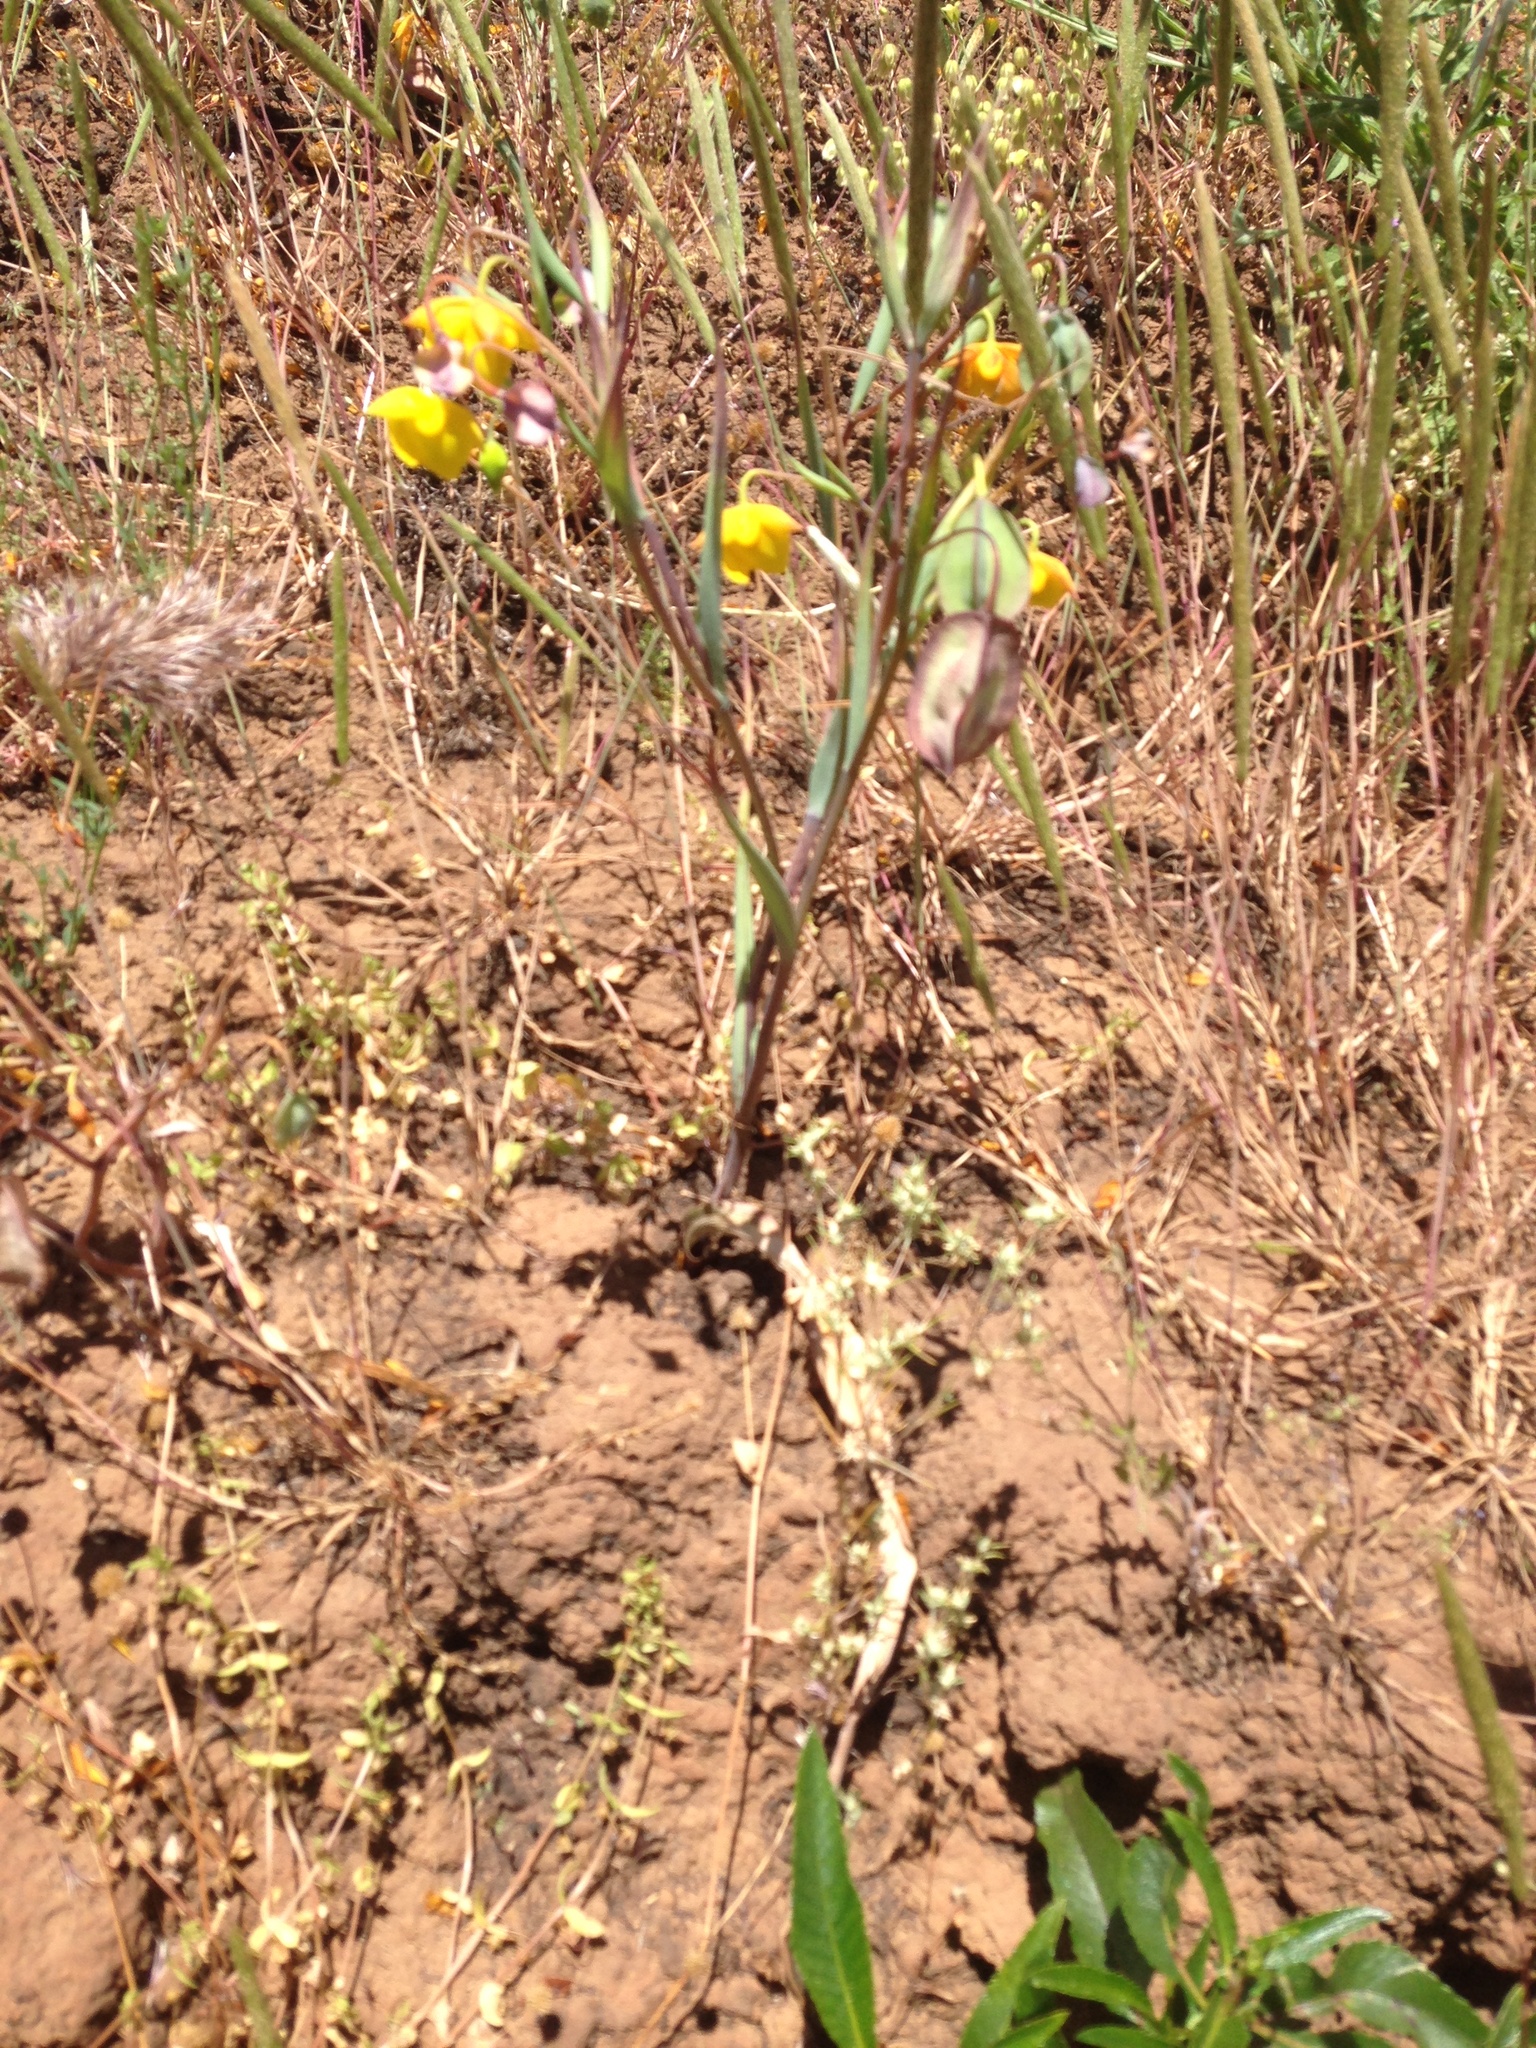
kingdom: Plantae
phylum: Tracheophyta
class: Liliopsida
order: Liliales
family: Liliaceae
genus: Calochortus
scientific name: Calochortus amabilis
